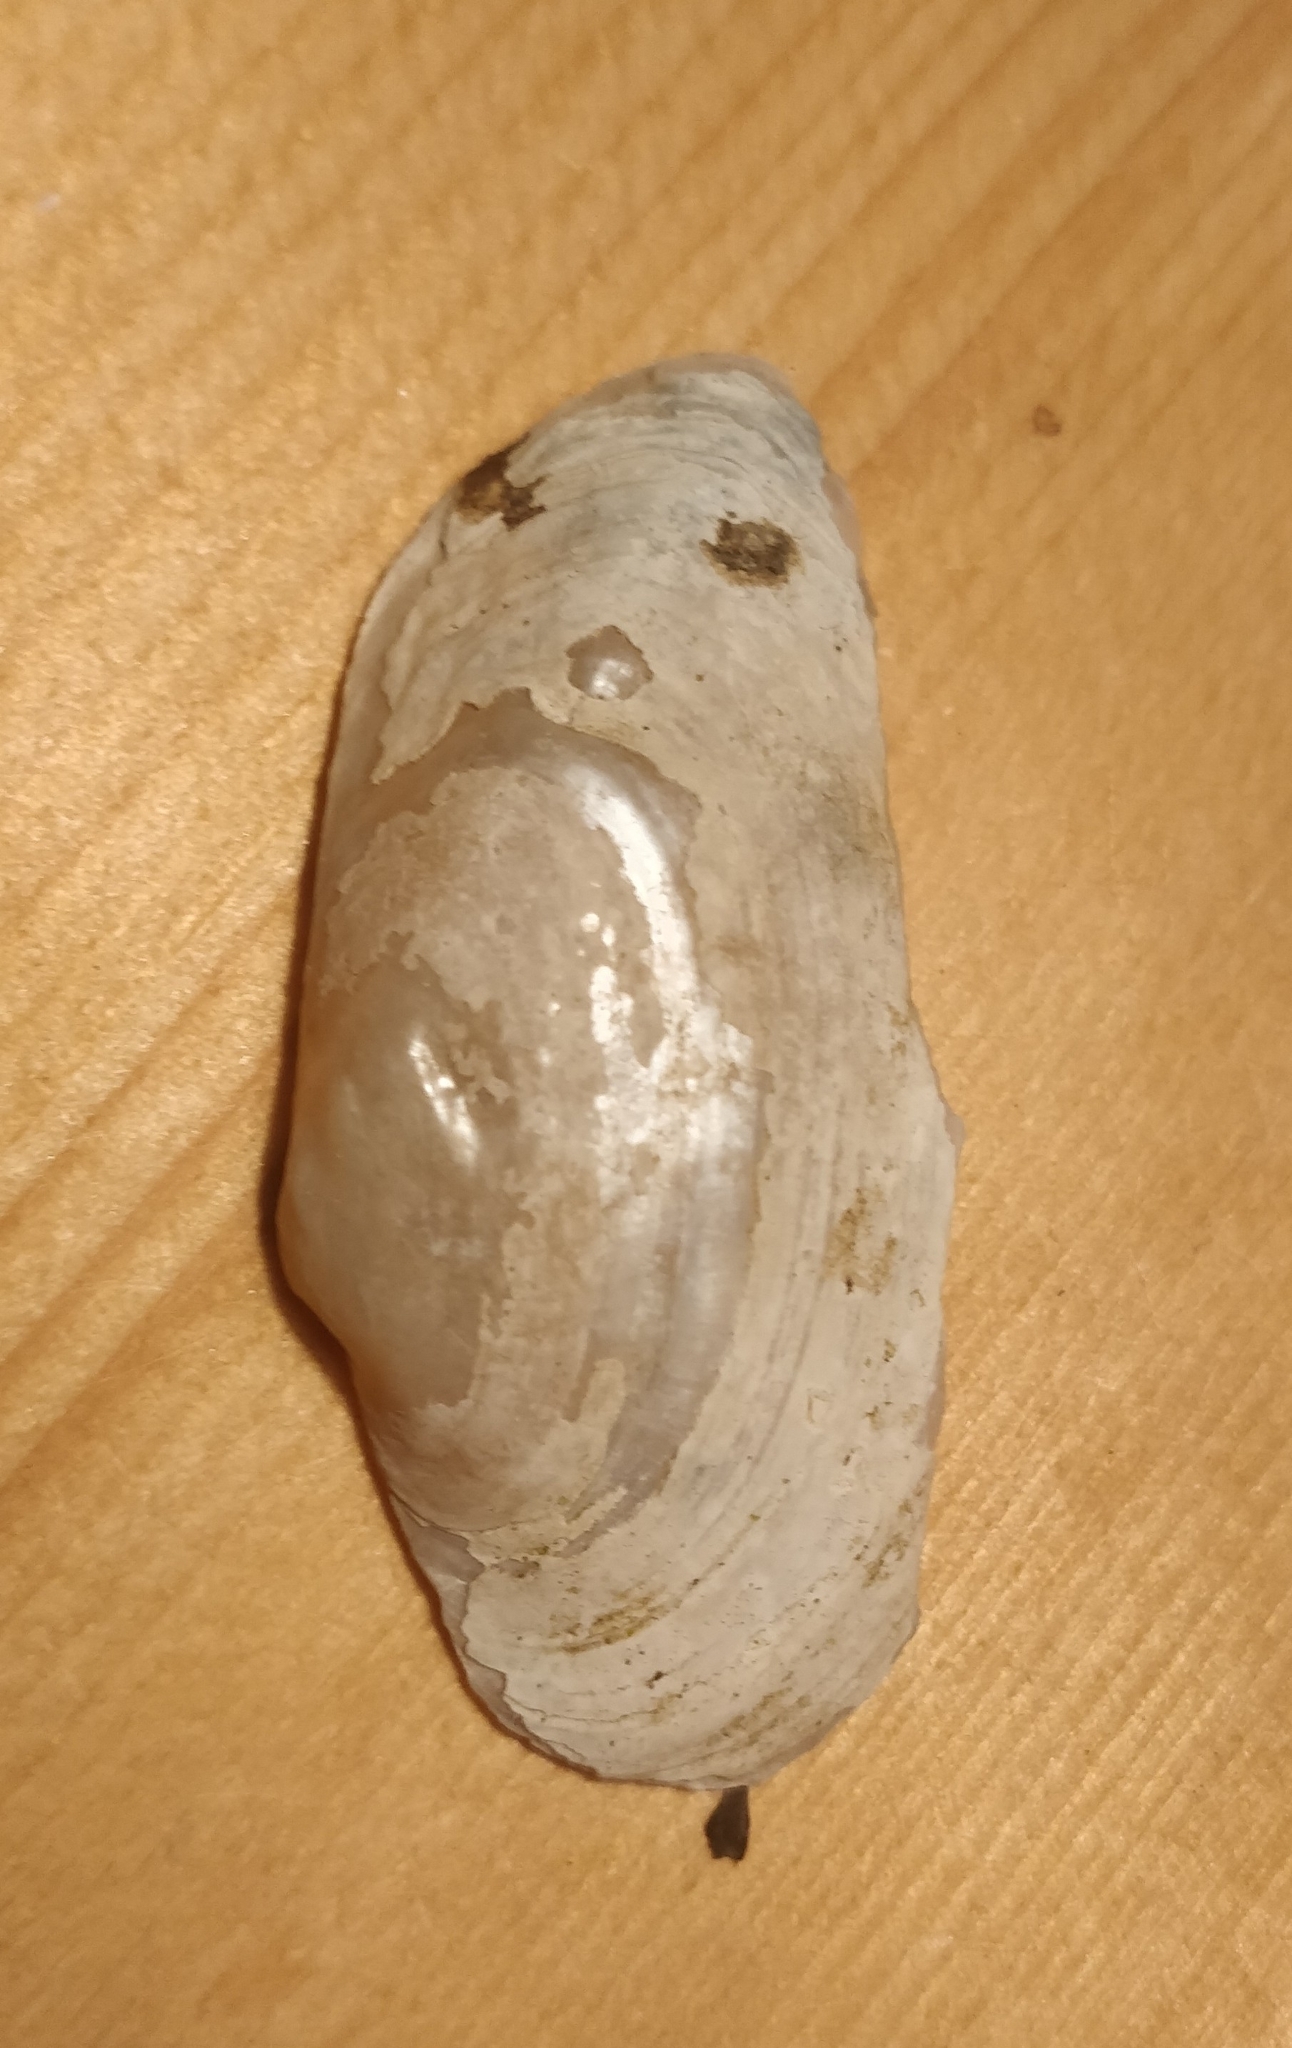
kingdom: Animalia
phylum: Mollusca
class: Bivalvia
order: Unionida
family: Unionidae
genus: Strophitus
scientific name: Strophitus undulatus
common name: Creeper
